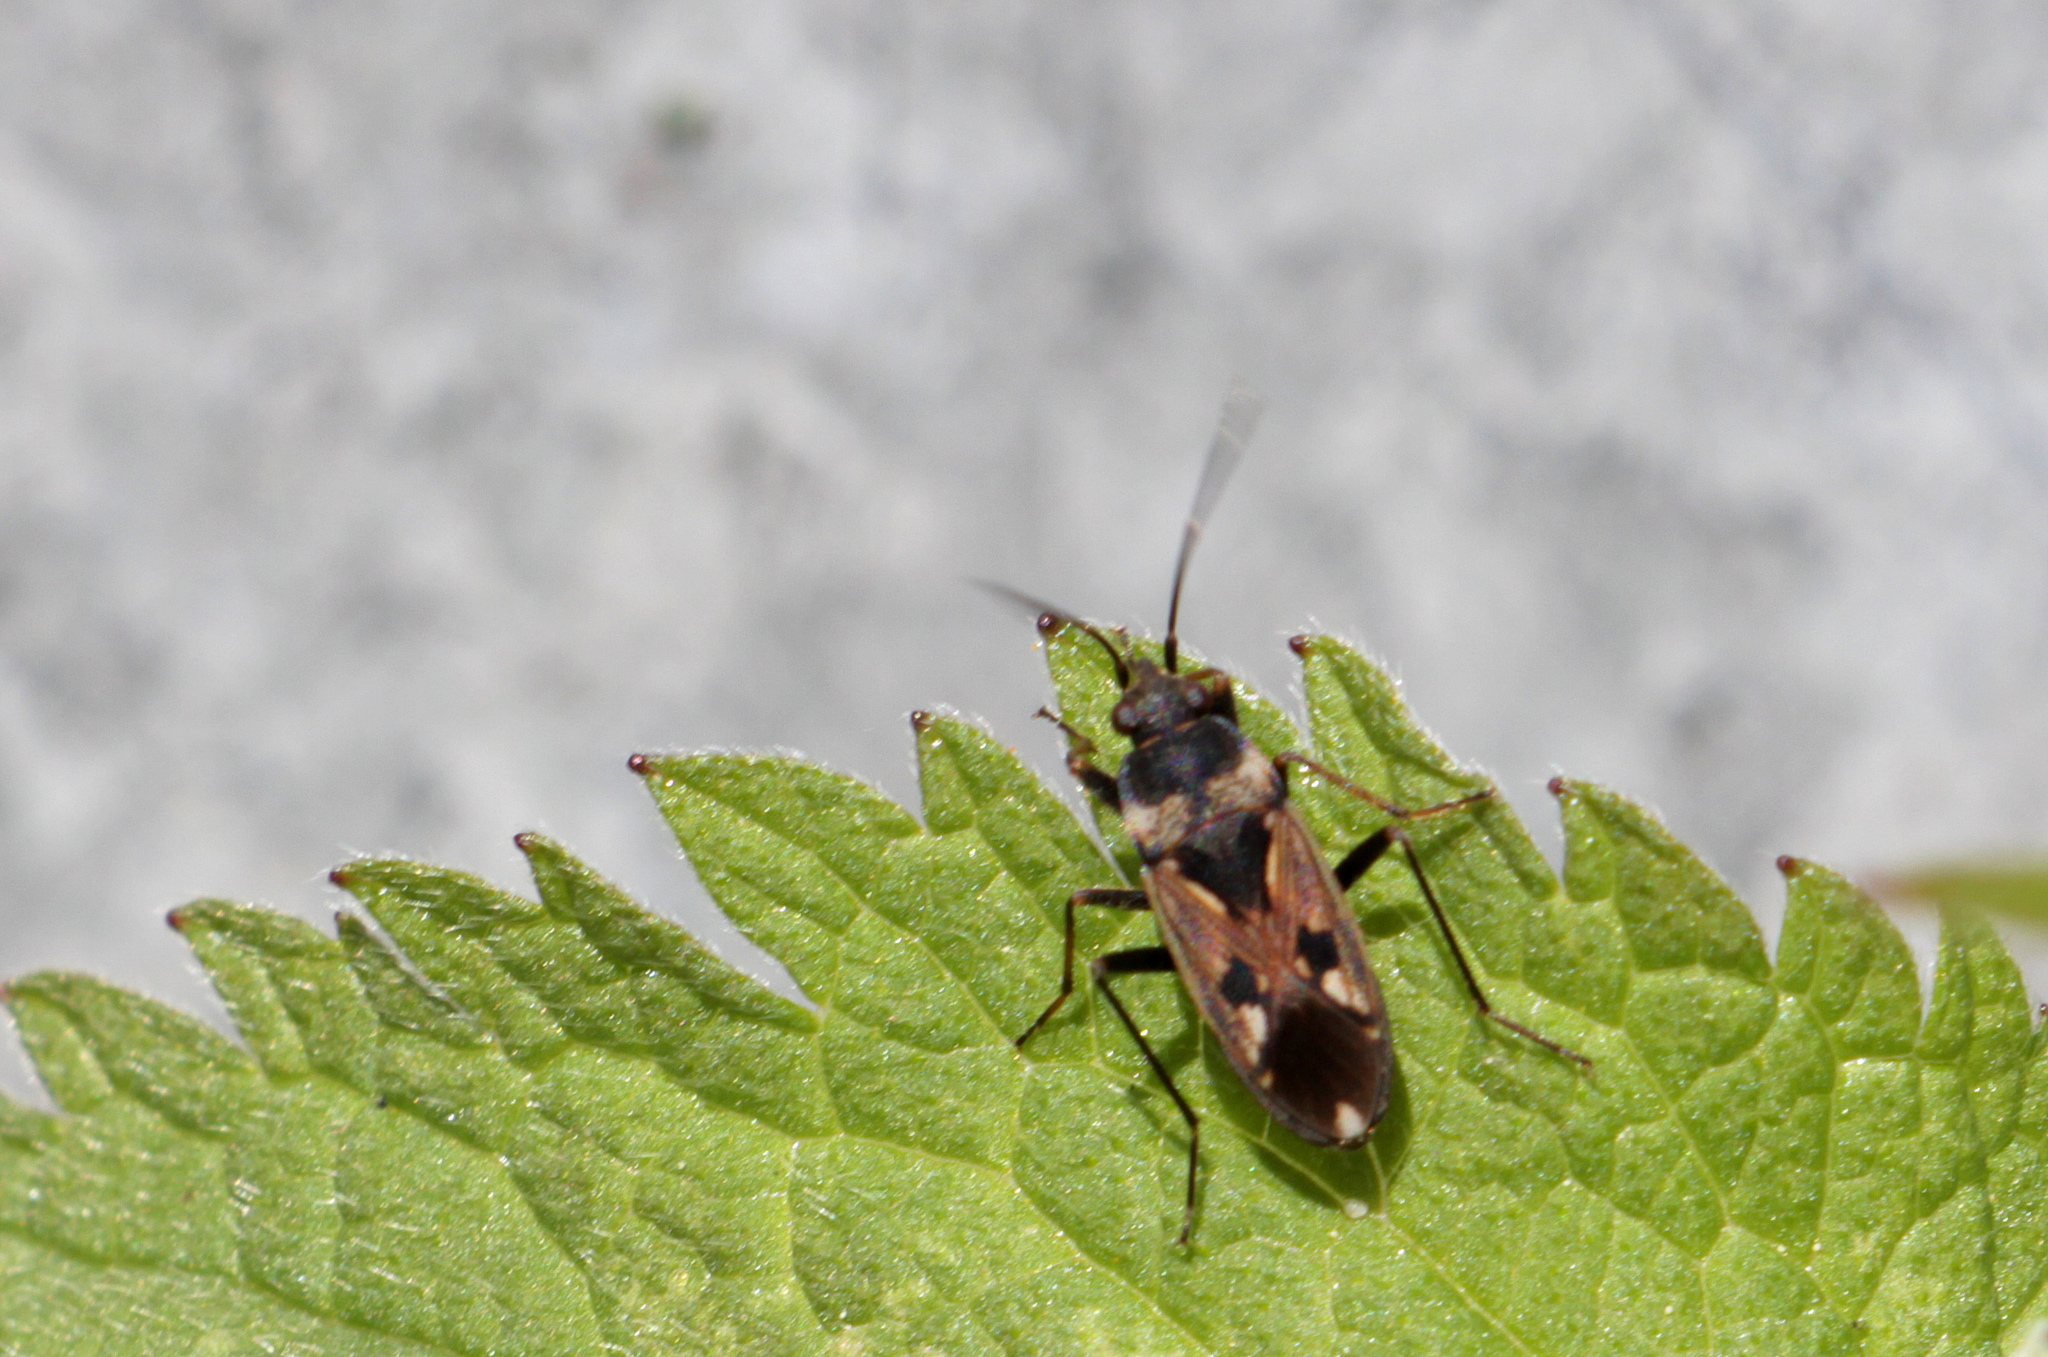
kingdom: Animalia
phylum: Arthropoda
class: Insecta
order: Hemiptera
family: Rhyparochromidae
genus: Rhyparochromus
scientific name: Rhyparochromus vulgaris
